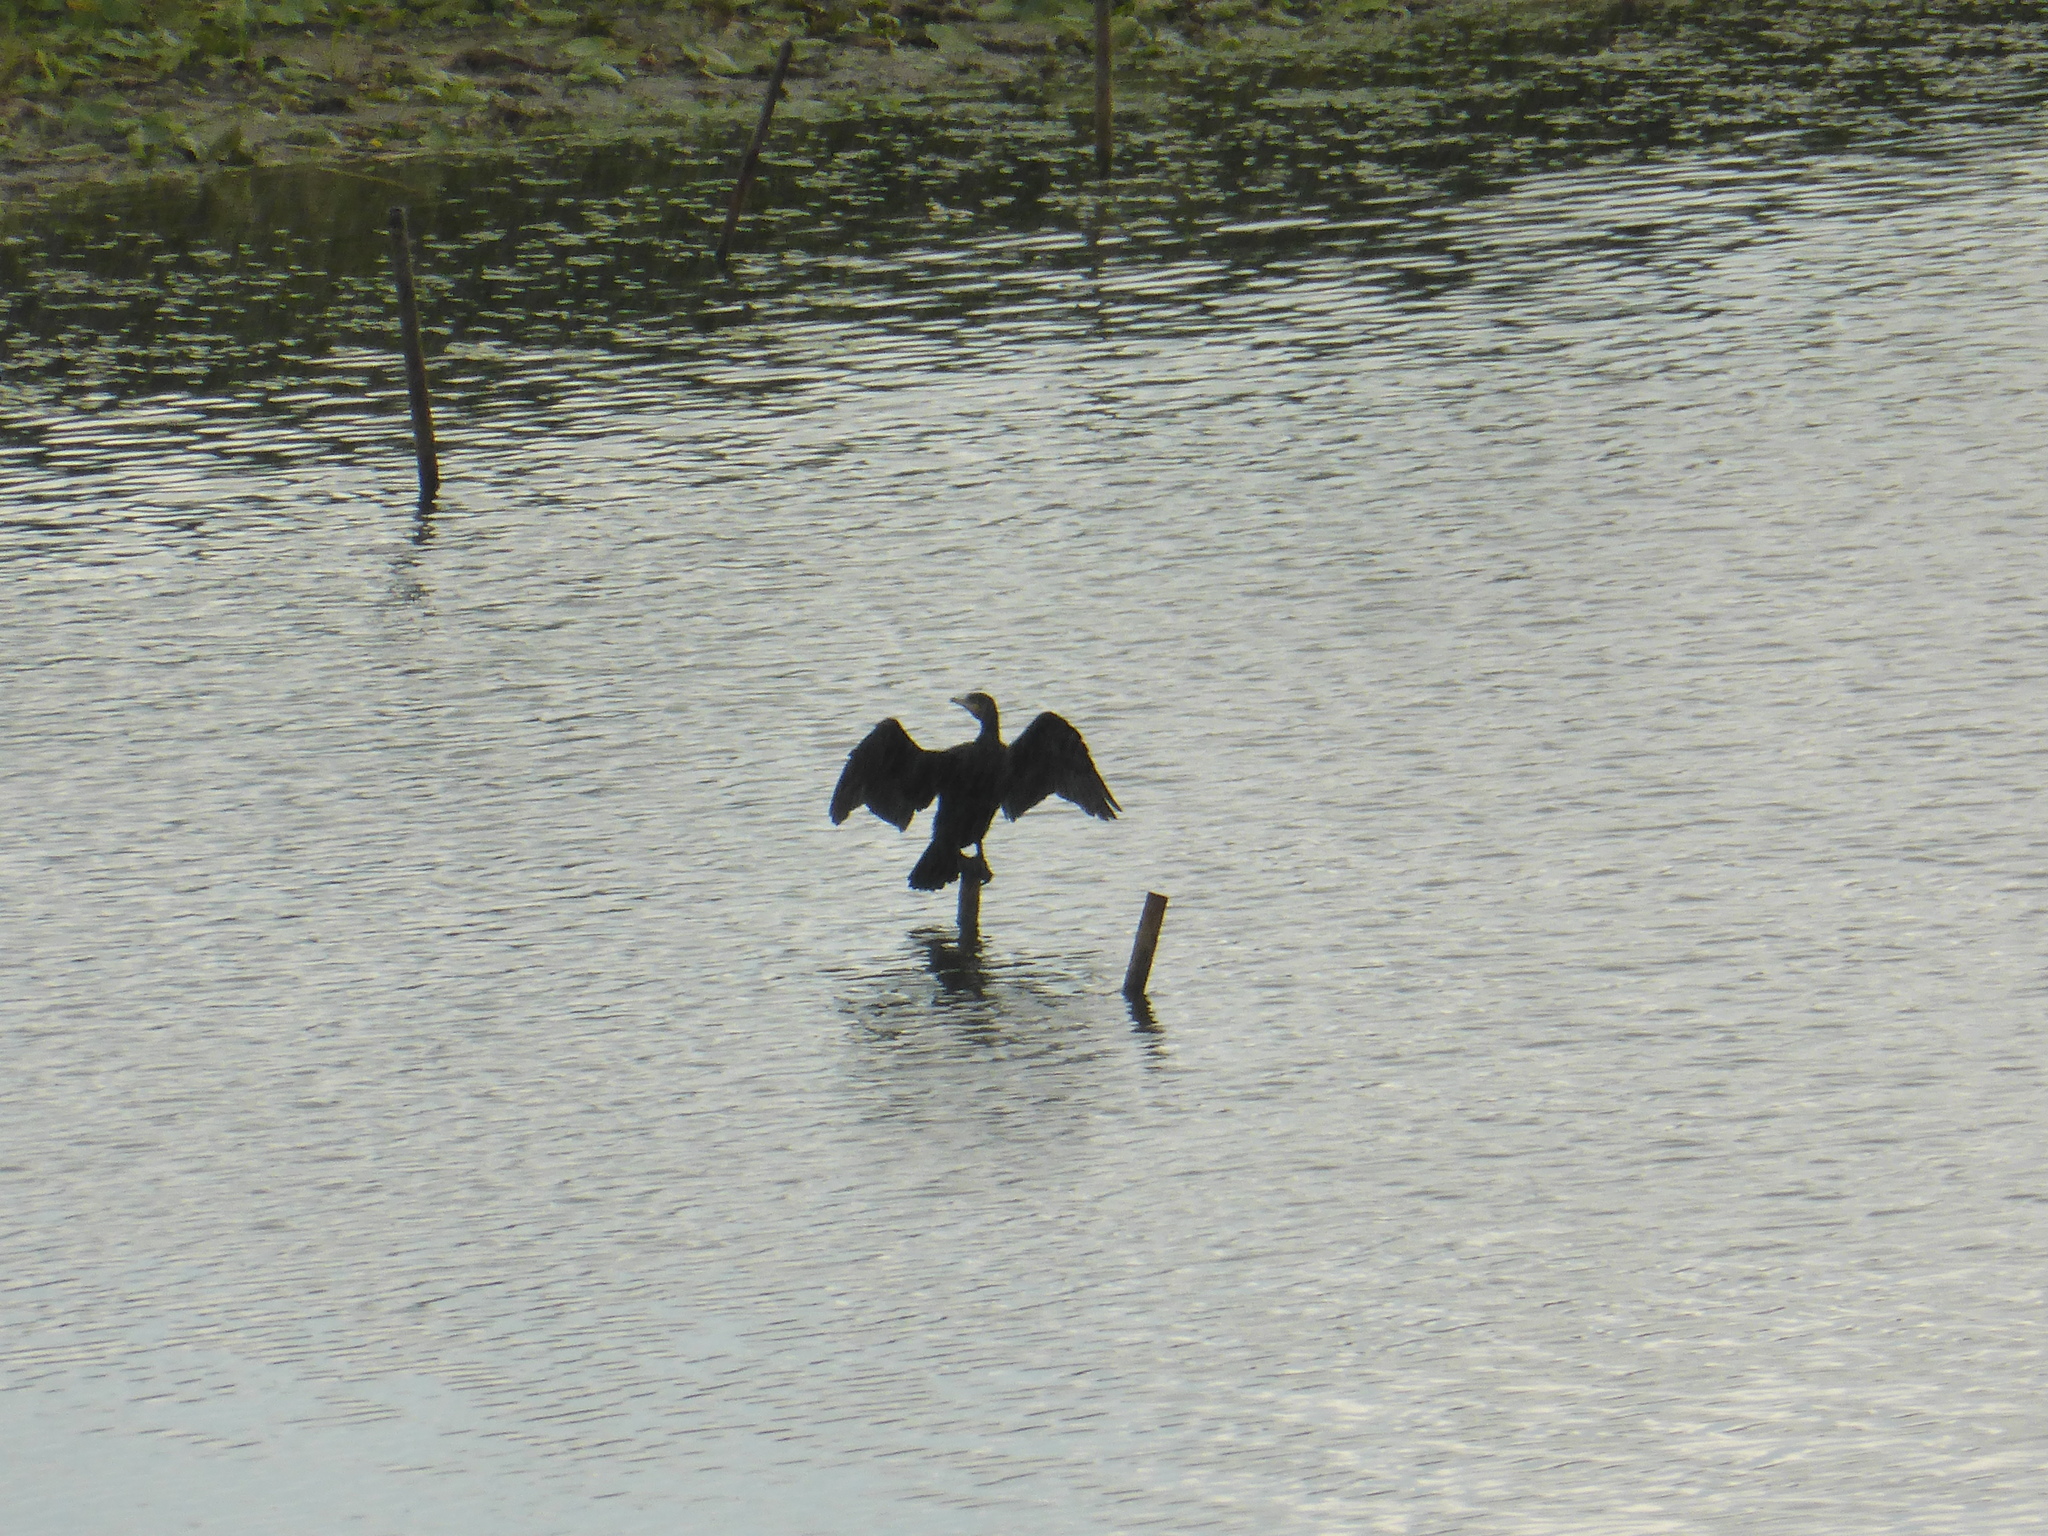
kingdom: Animalia
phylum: Chordata
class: Aves
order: Suliformes
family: Phalacrocoracidae
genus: Phalacrocorax
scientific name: Phalacrocorax carbo
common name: Great cormorant
